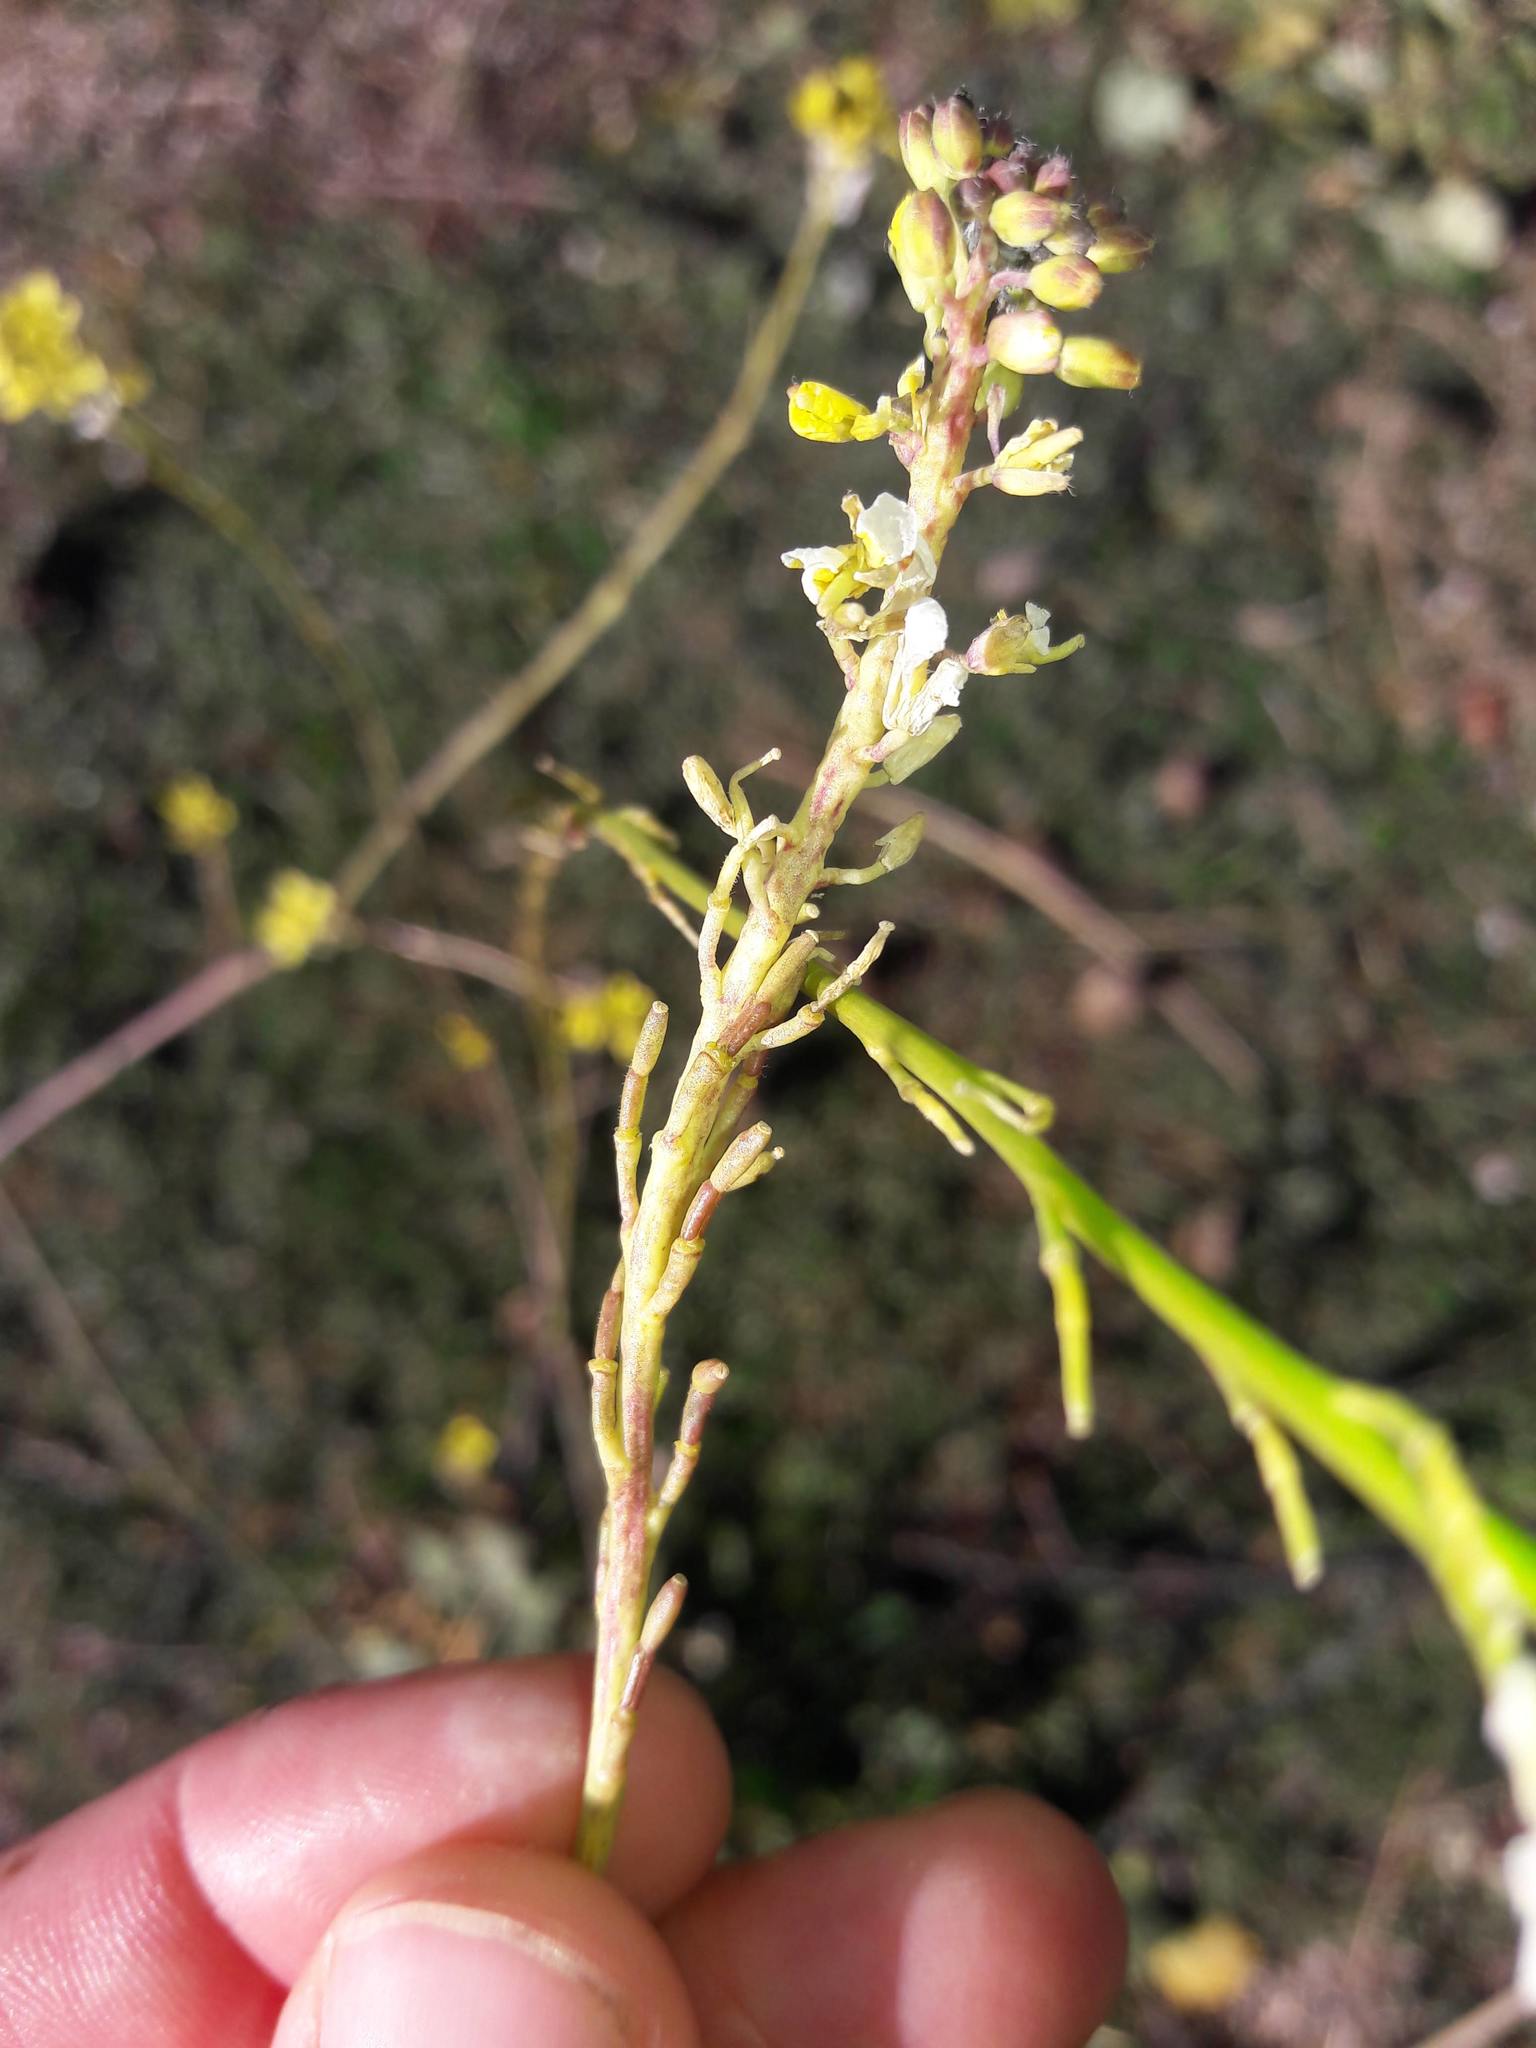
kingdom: Plantae
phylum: Tracheophyta
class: Magnoliopsida
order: Brassicales
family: Brassicaceae
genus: Hirschfeldia
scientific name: Hirschfeldia incana
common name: Hoary mustard
